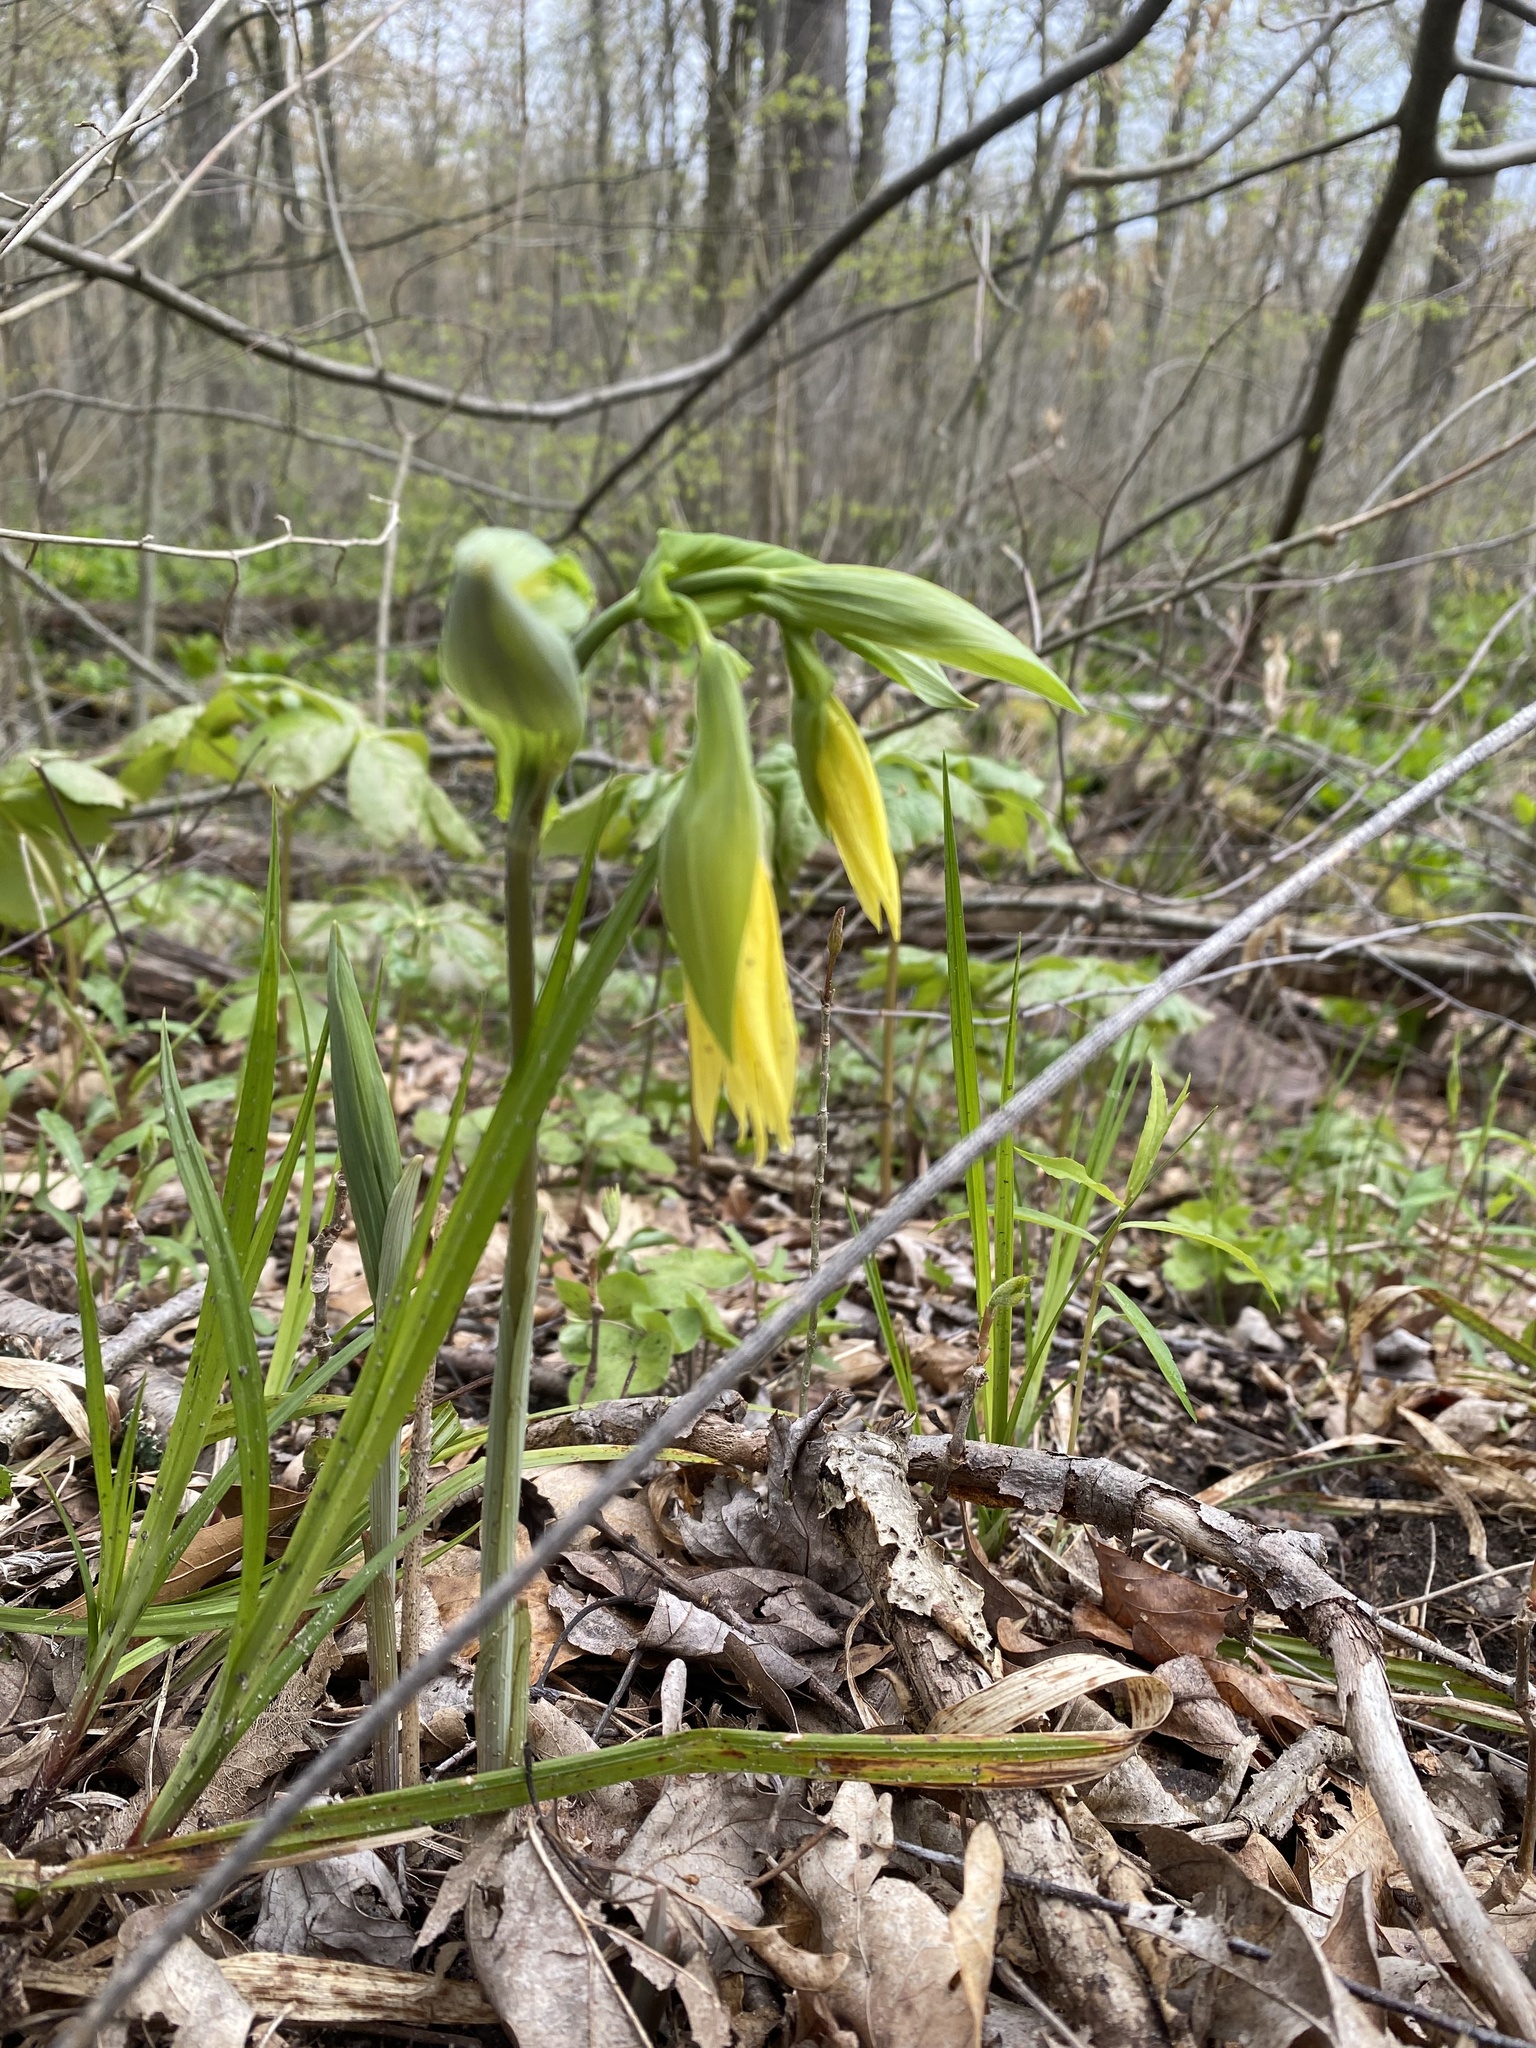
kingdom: Plantae
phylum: Tracheophyta
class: Liliopsida
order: Liliales
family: Colchicaceae
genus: Uvularia
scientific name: Uvularia grandiflora
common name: Bellwort
